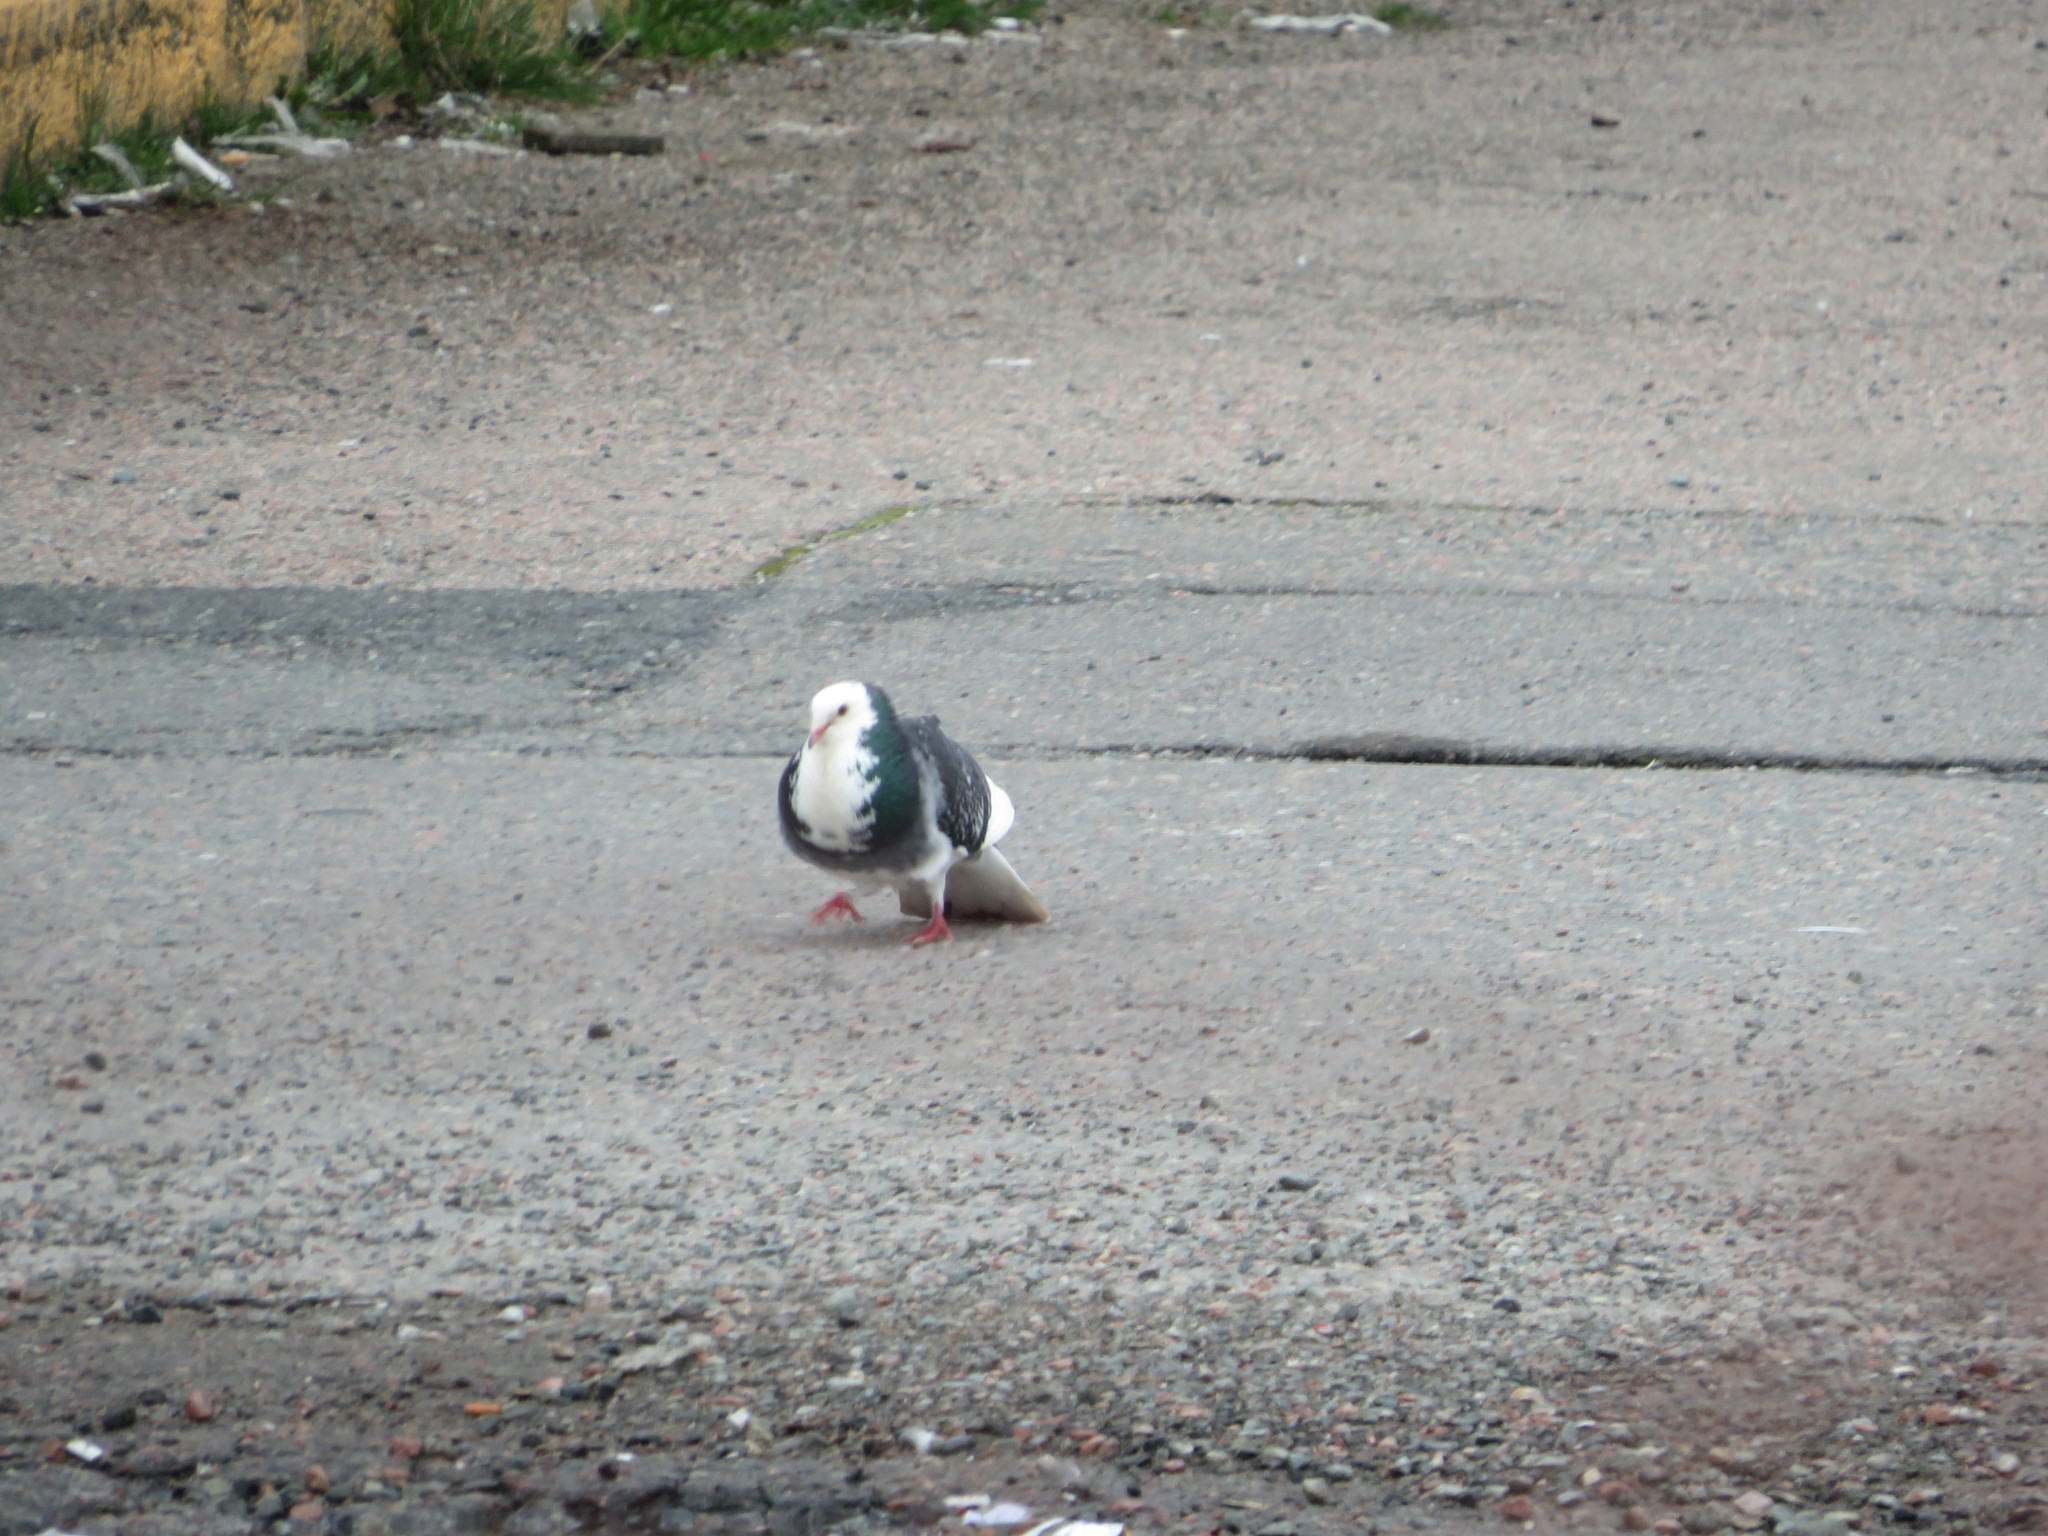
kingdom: Animalia
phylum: Chordata
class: Aves
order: Columbiformes
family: Columbidae
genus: Columba
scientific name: Columba livia
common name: Rock pigeon
